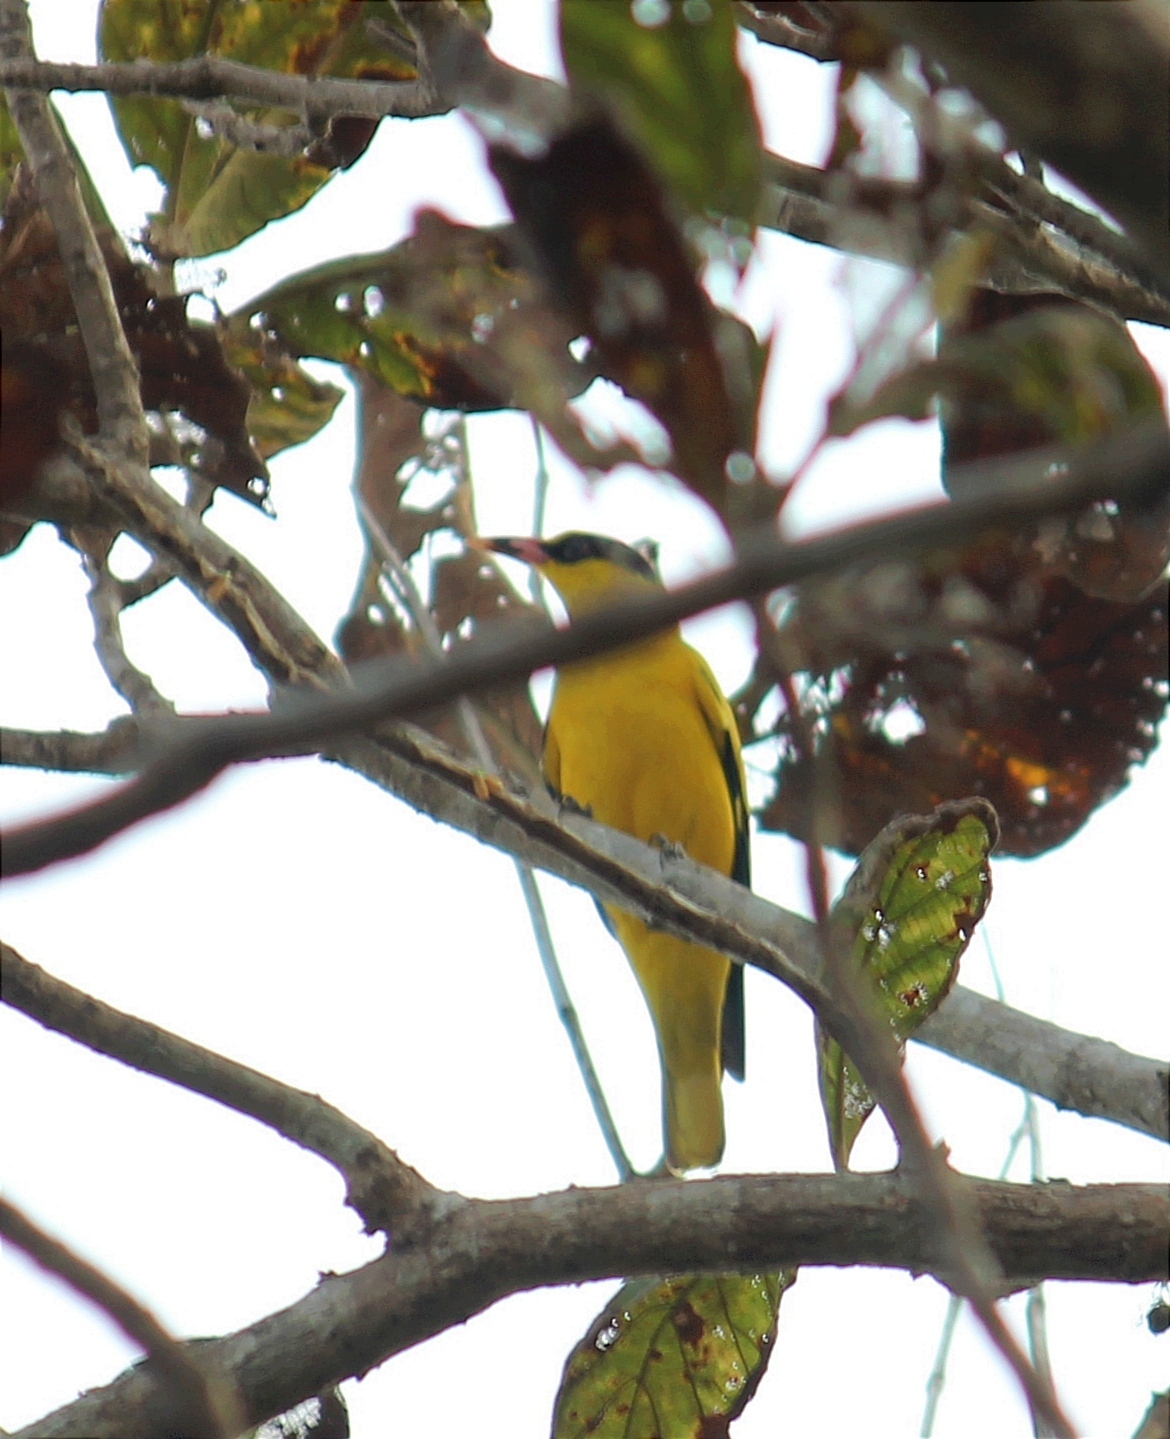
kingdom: Animalia
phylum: Chordata
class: Aves
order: Passeriformes
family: Oriolidae
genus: Oriolus
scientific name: Oriolus chinensis
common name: Black-naped oriole
